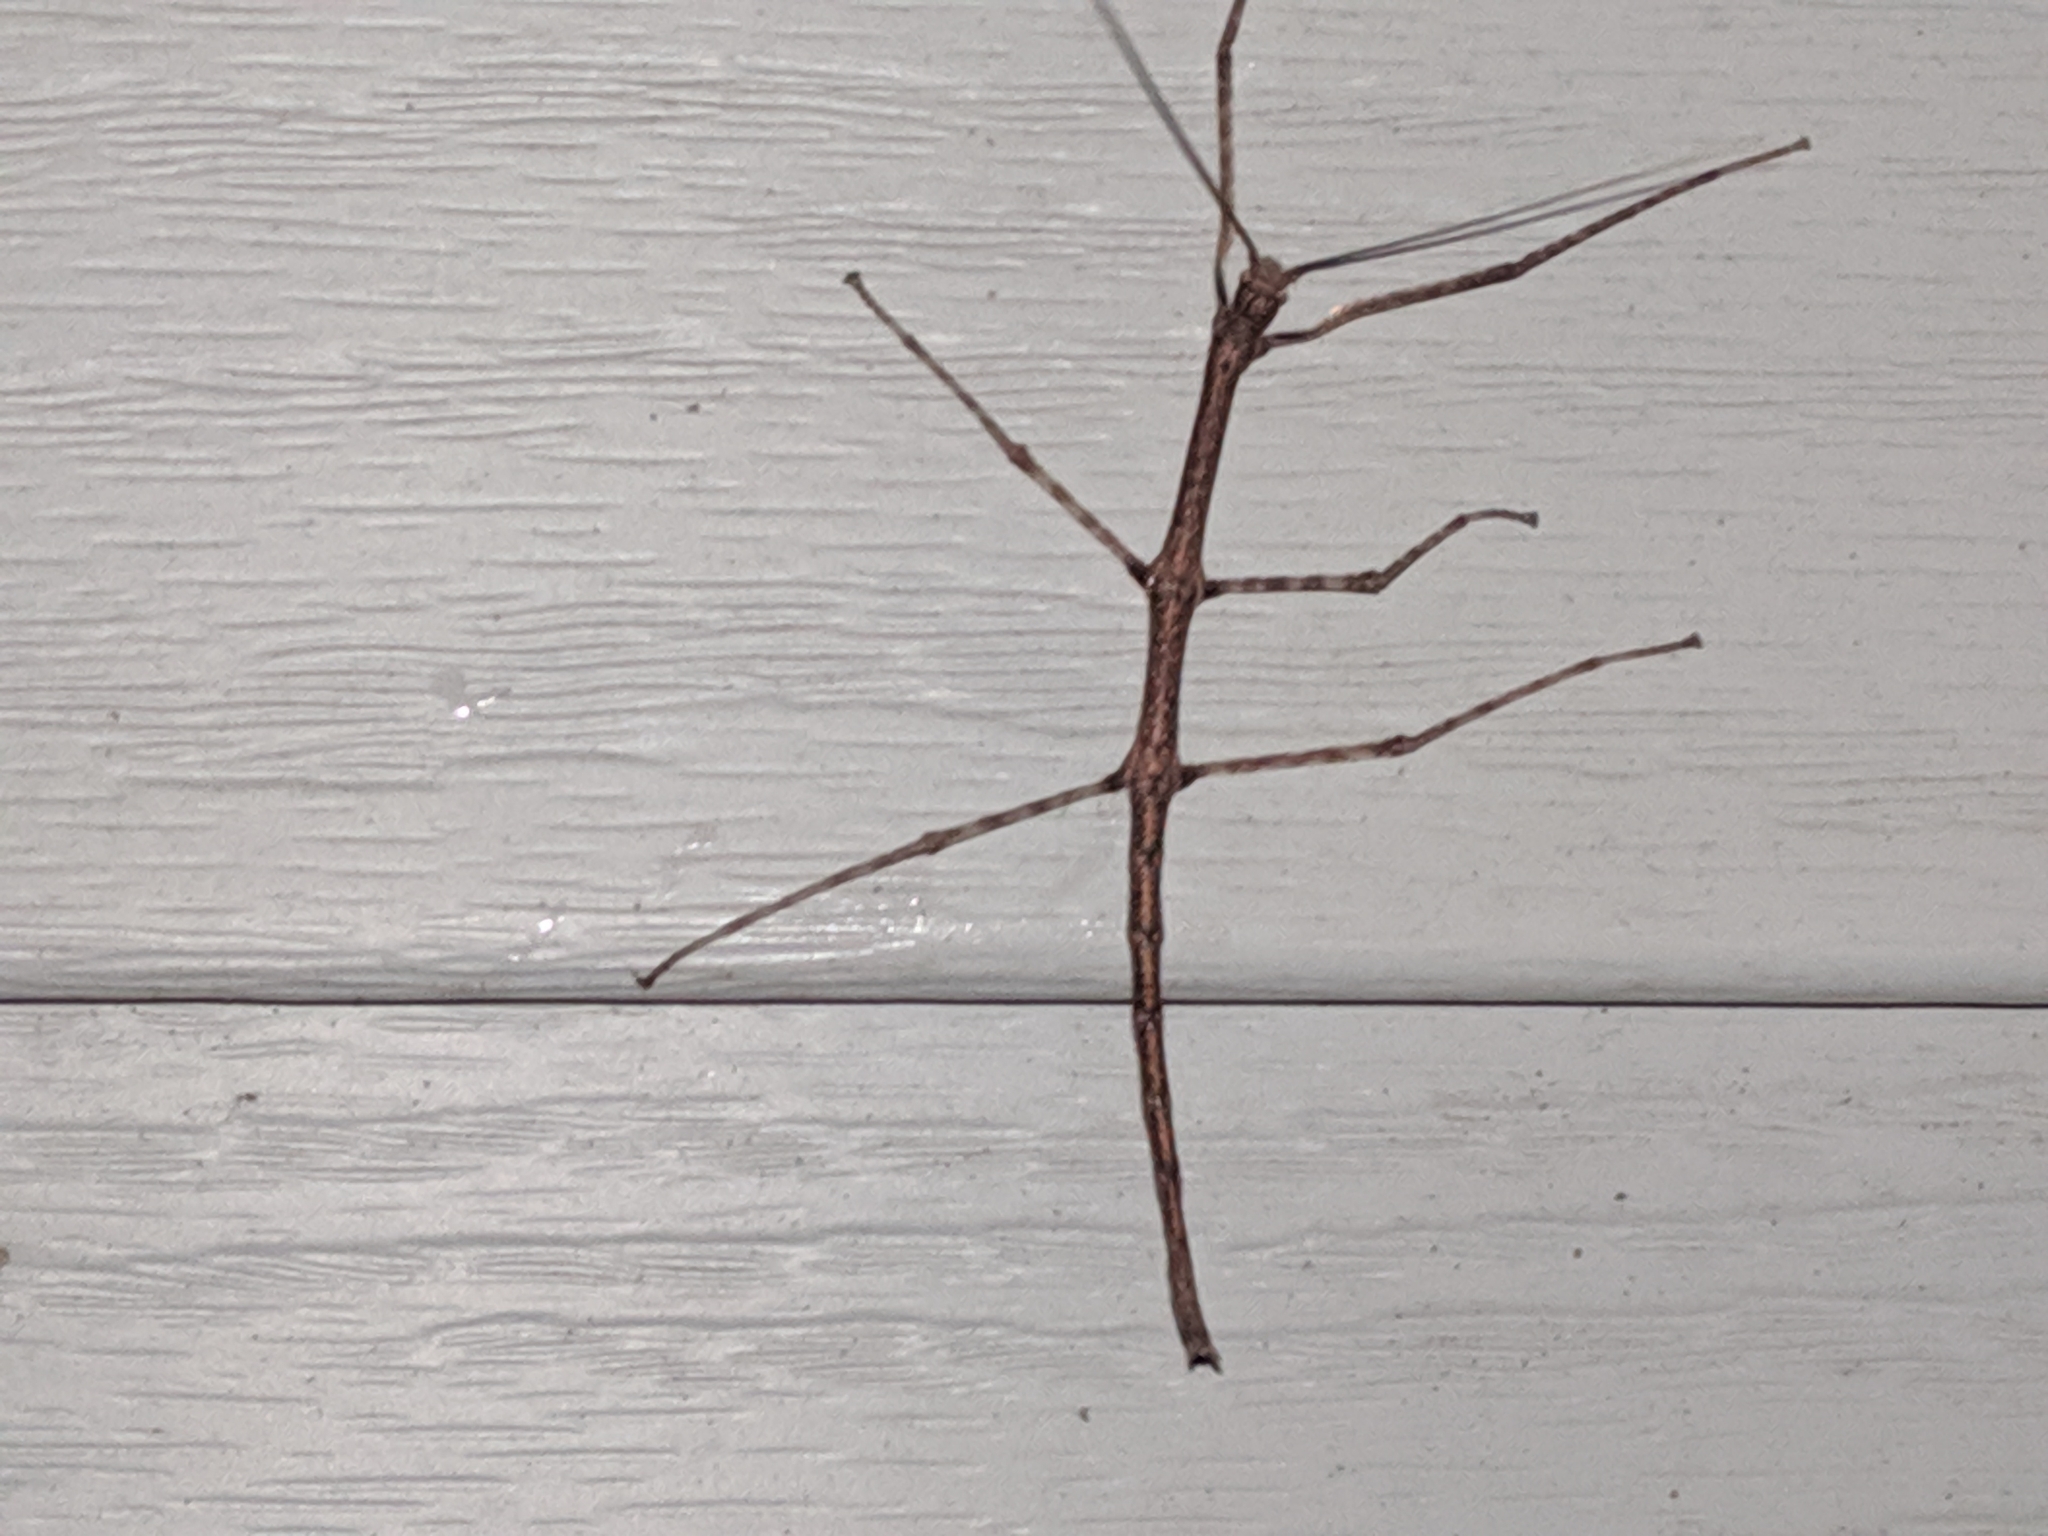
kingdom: Animalia
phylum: Arthropoda
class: Insecta
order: Phasmida
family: Diapheromeridae
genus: Diapheromera
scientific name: Diapheromera femorata
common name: Common american walkingstick
